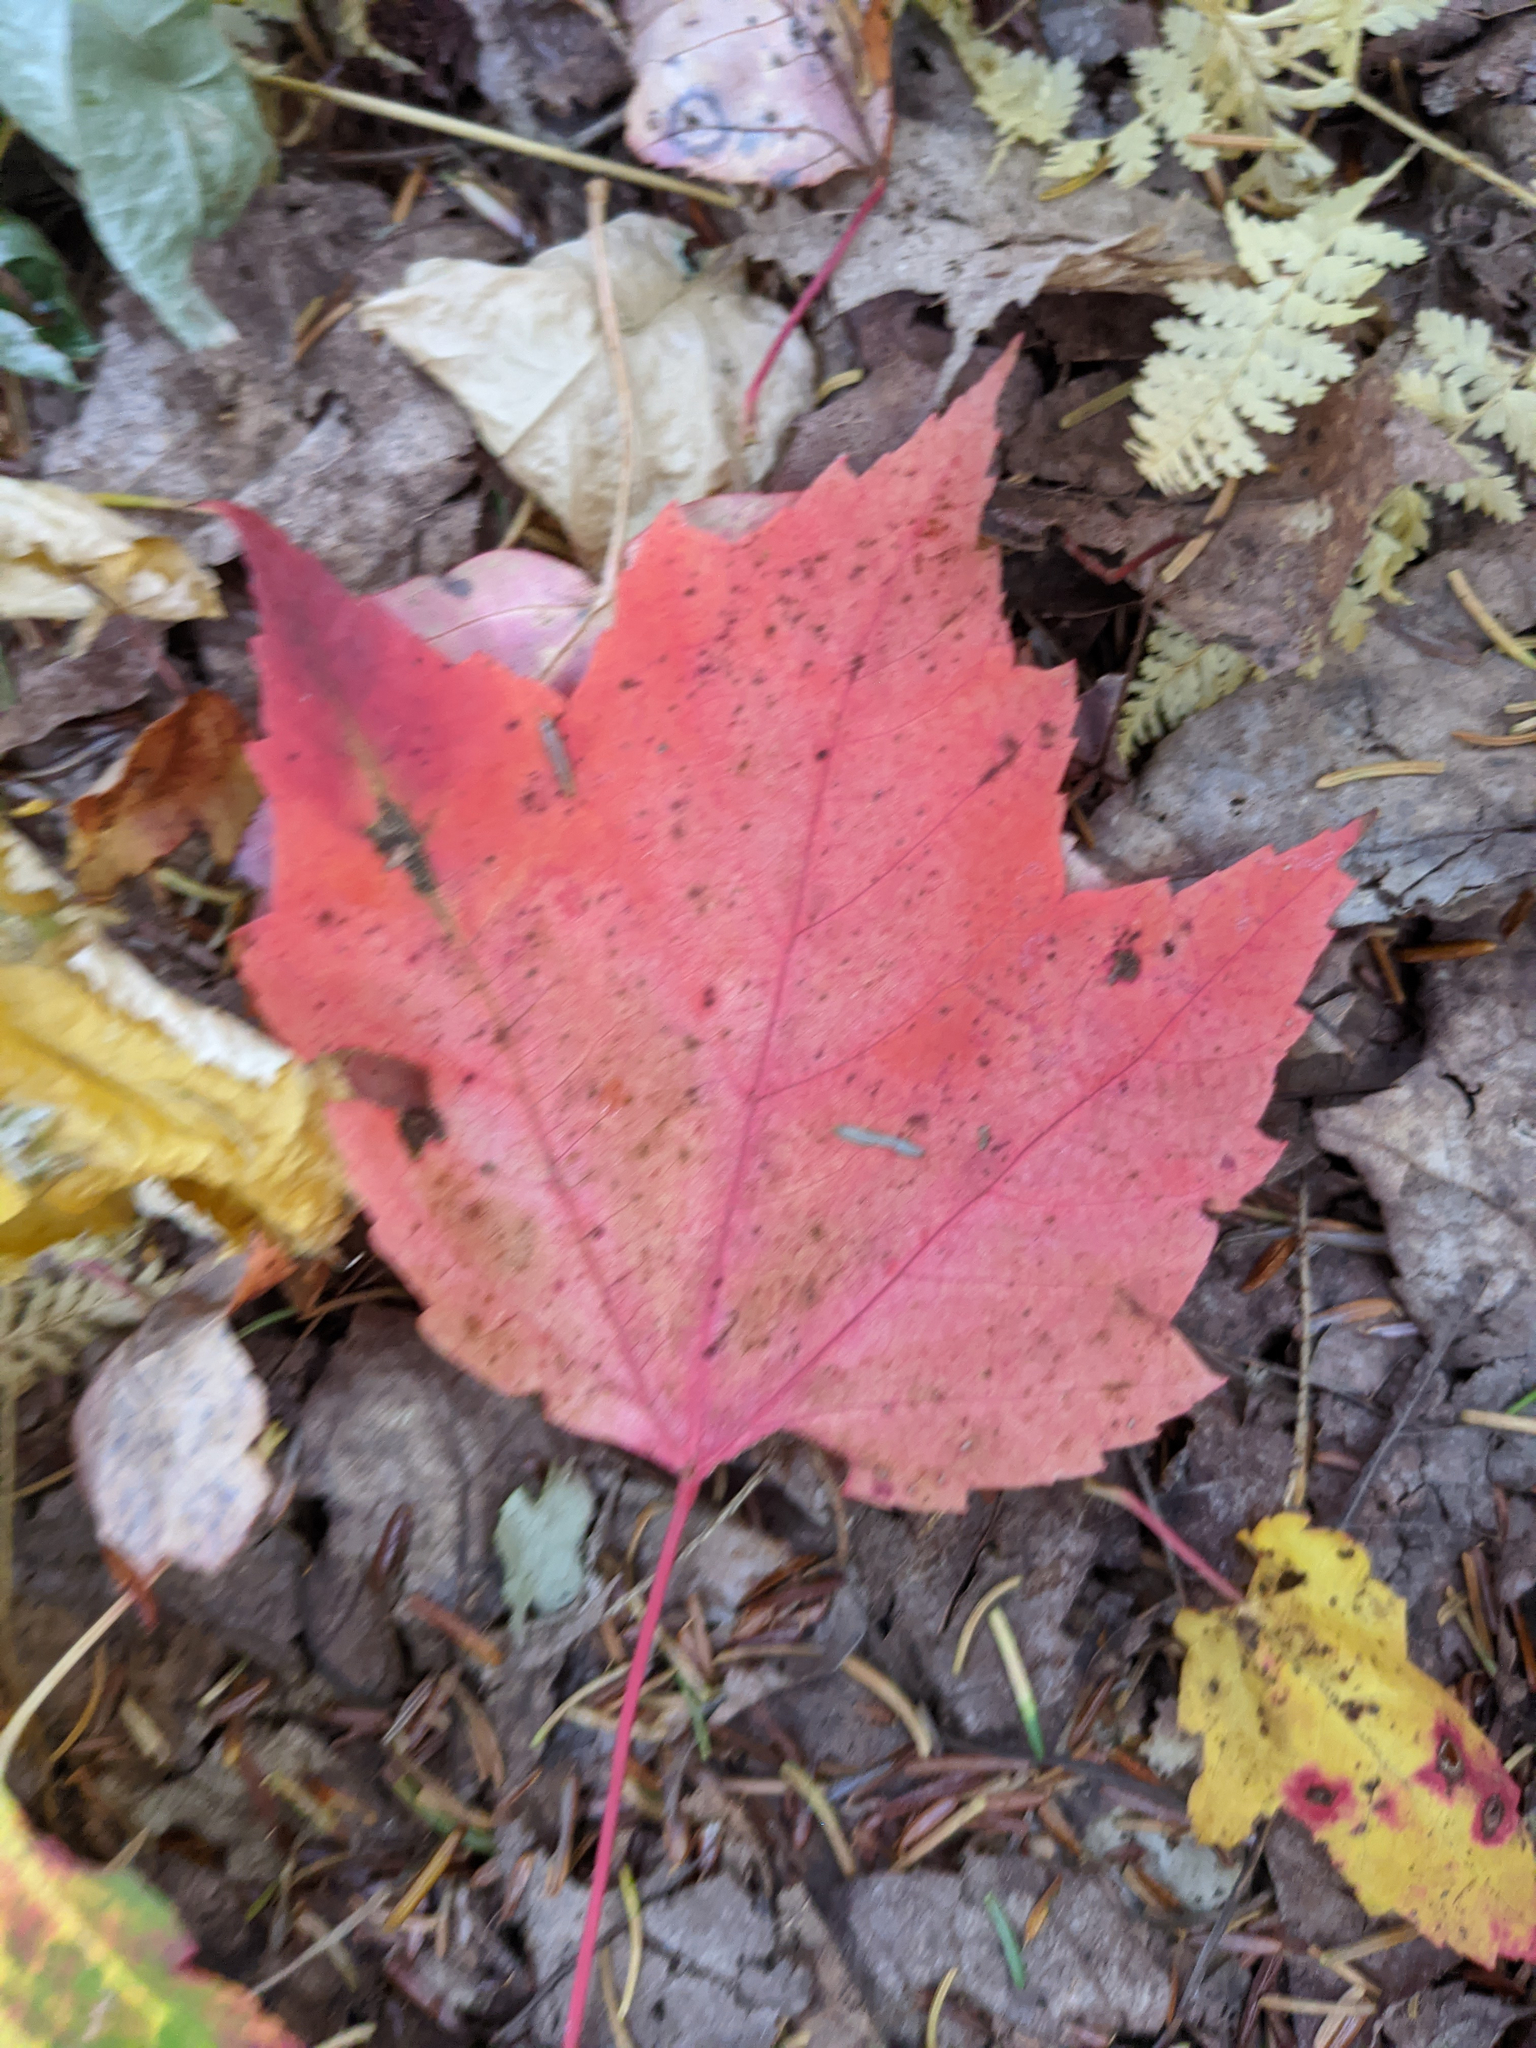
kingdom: Plantae
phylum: Tracheophyta
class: Magnoliopsida
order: Sapindales
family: Sapindaceae
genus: Acer
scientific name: Acer rubrum
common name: Red maple
